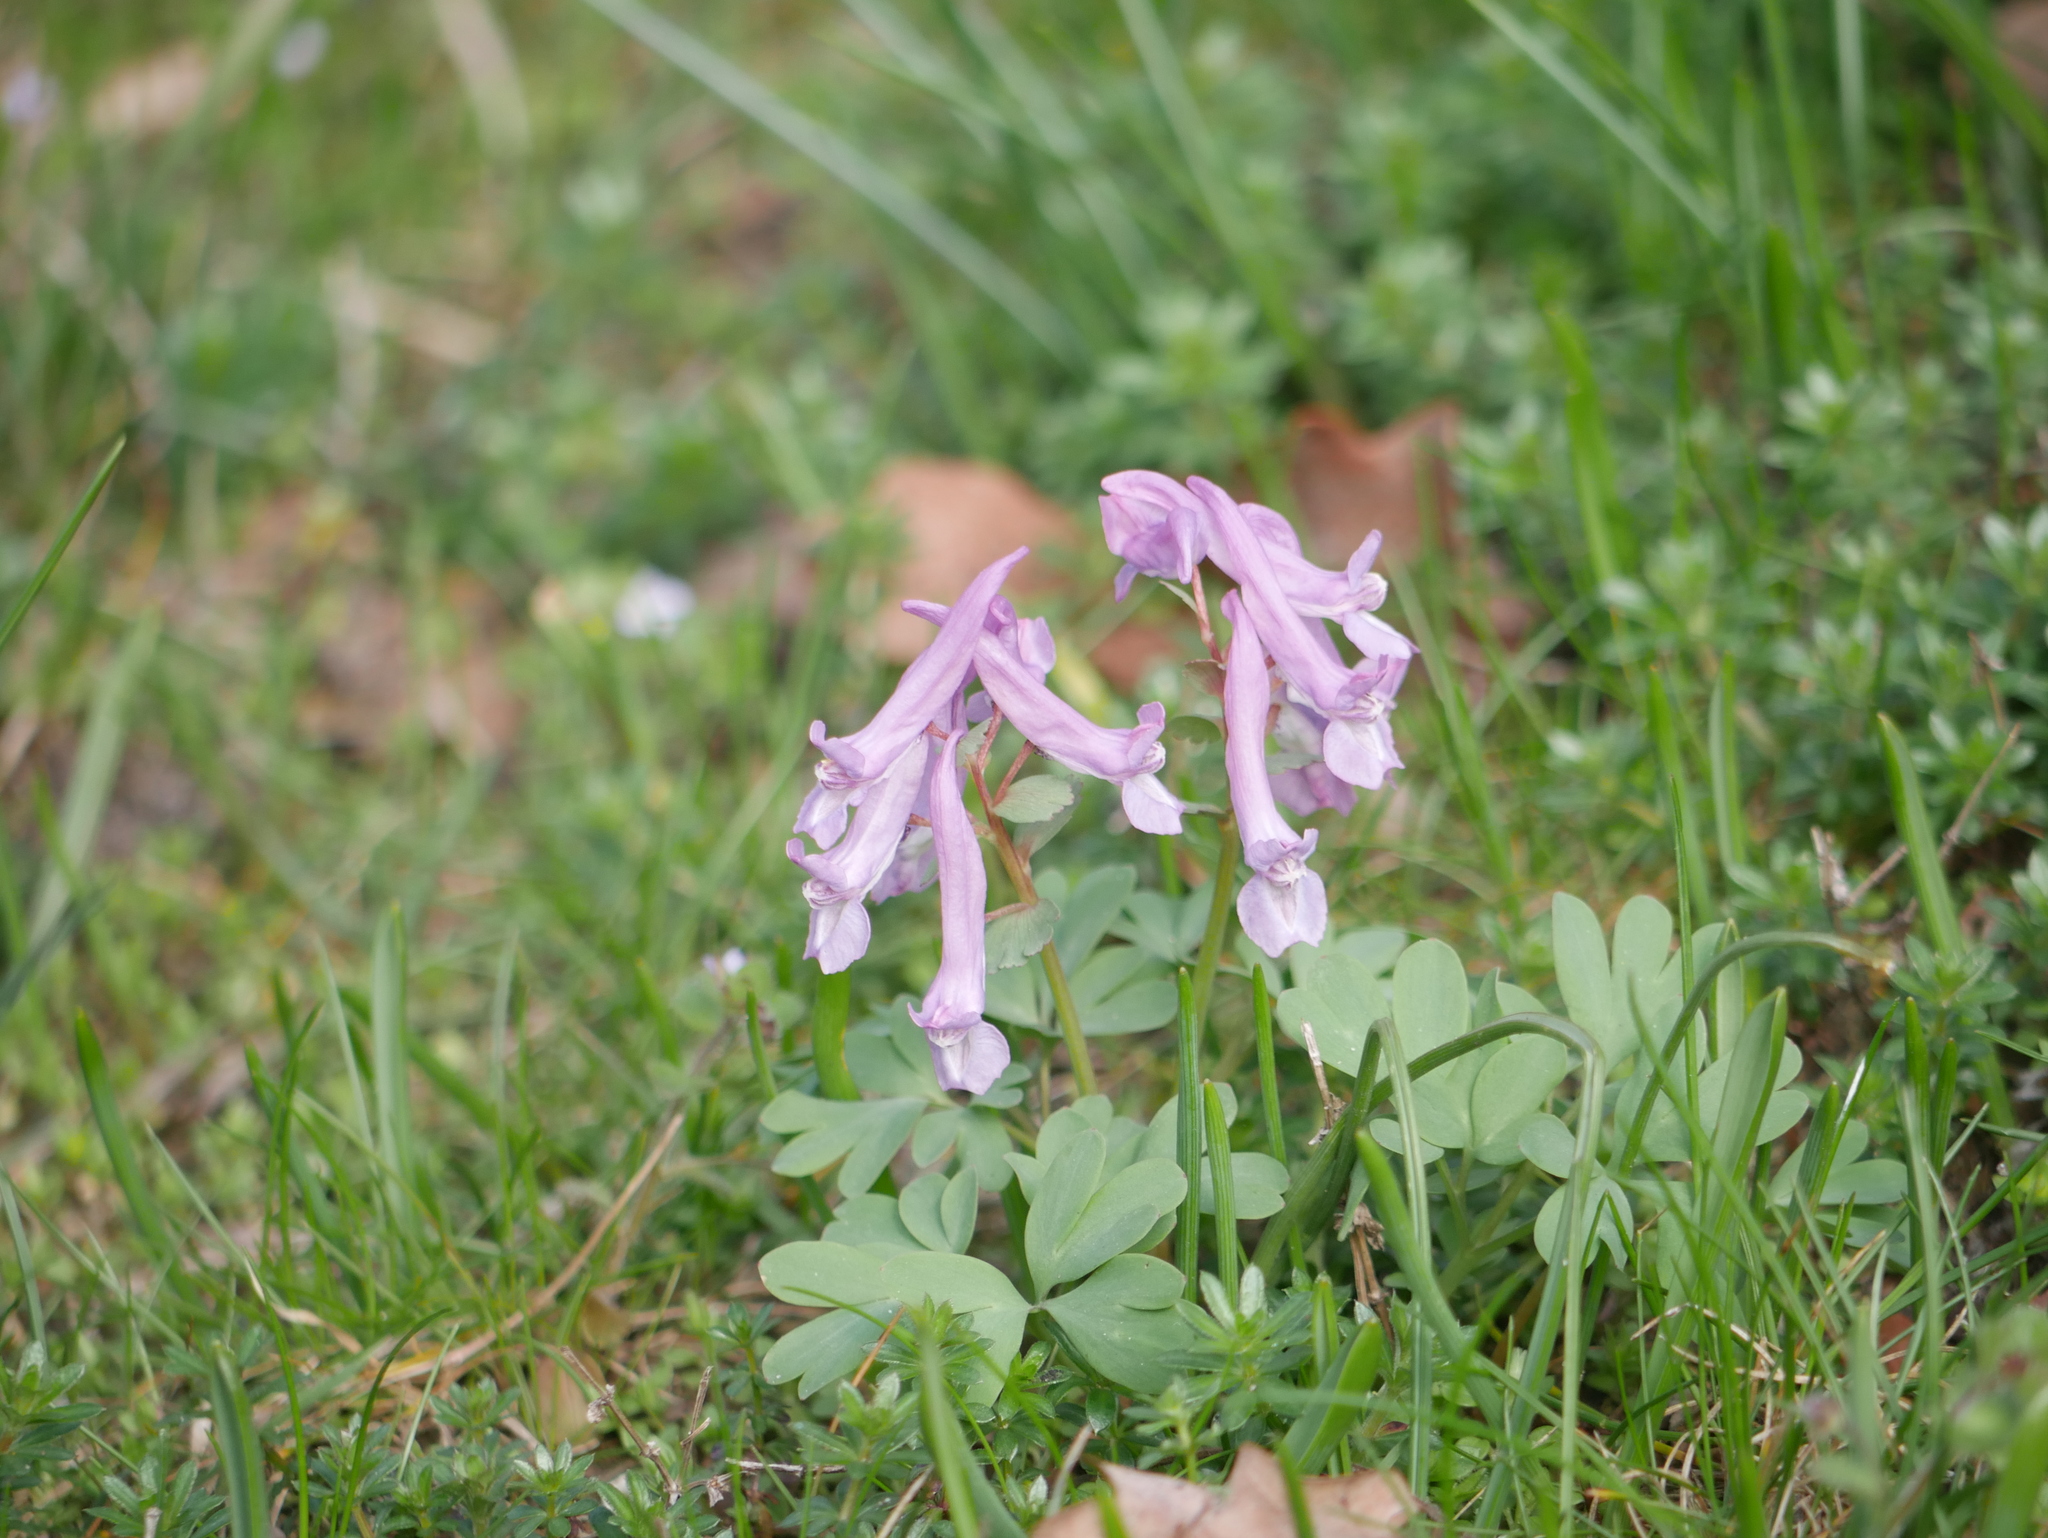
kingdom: Plantae
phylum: Tracheophyta
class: Magnoliopsida
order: Ranunculales
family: Papaveraceae
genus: Corydalis
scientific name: Corydalis solida
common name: Bird-in-a-bush
